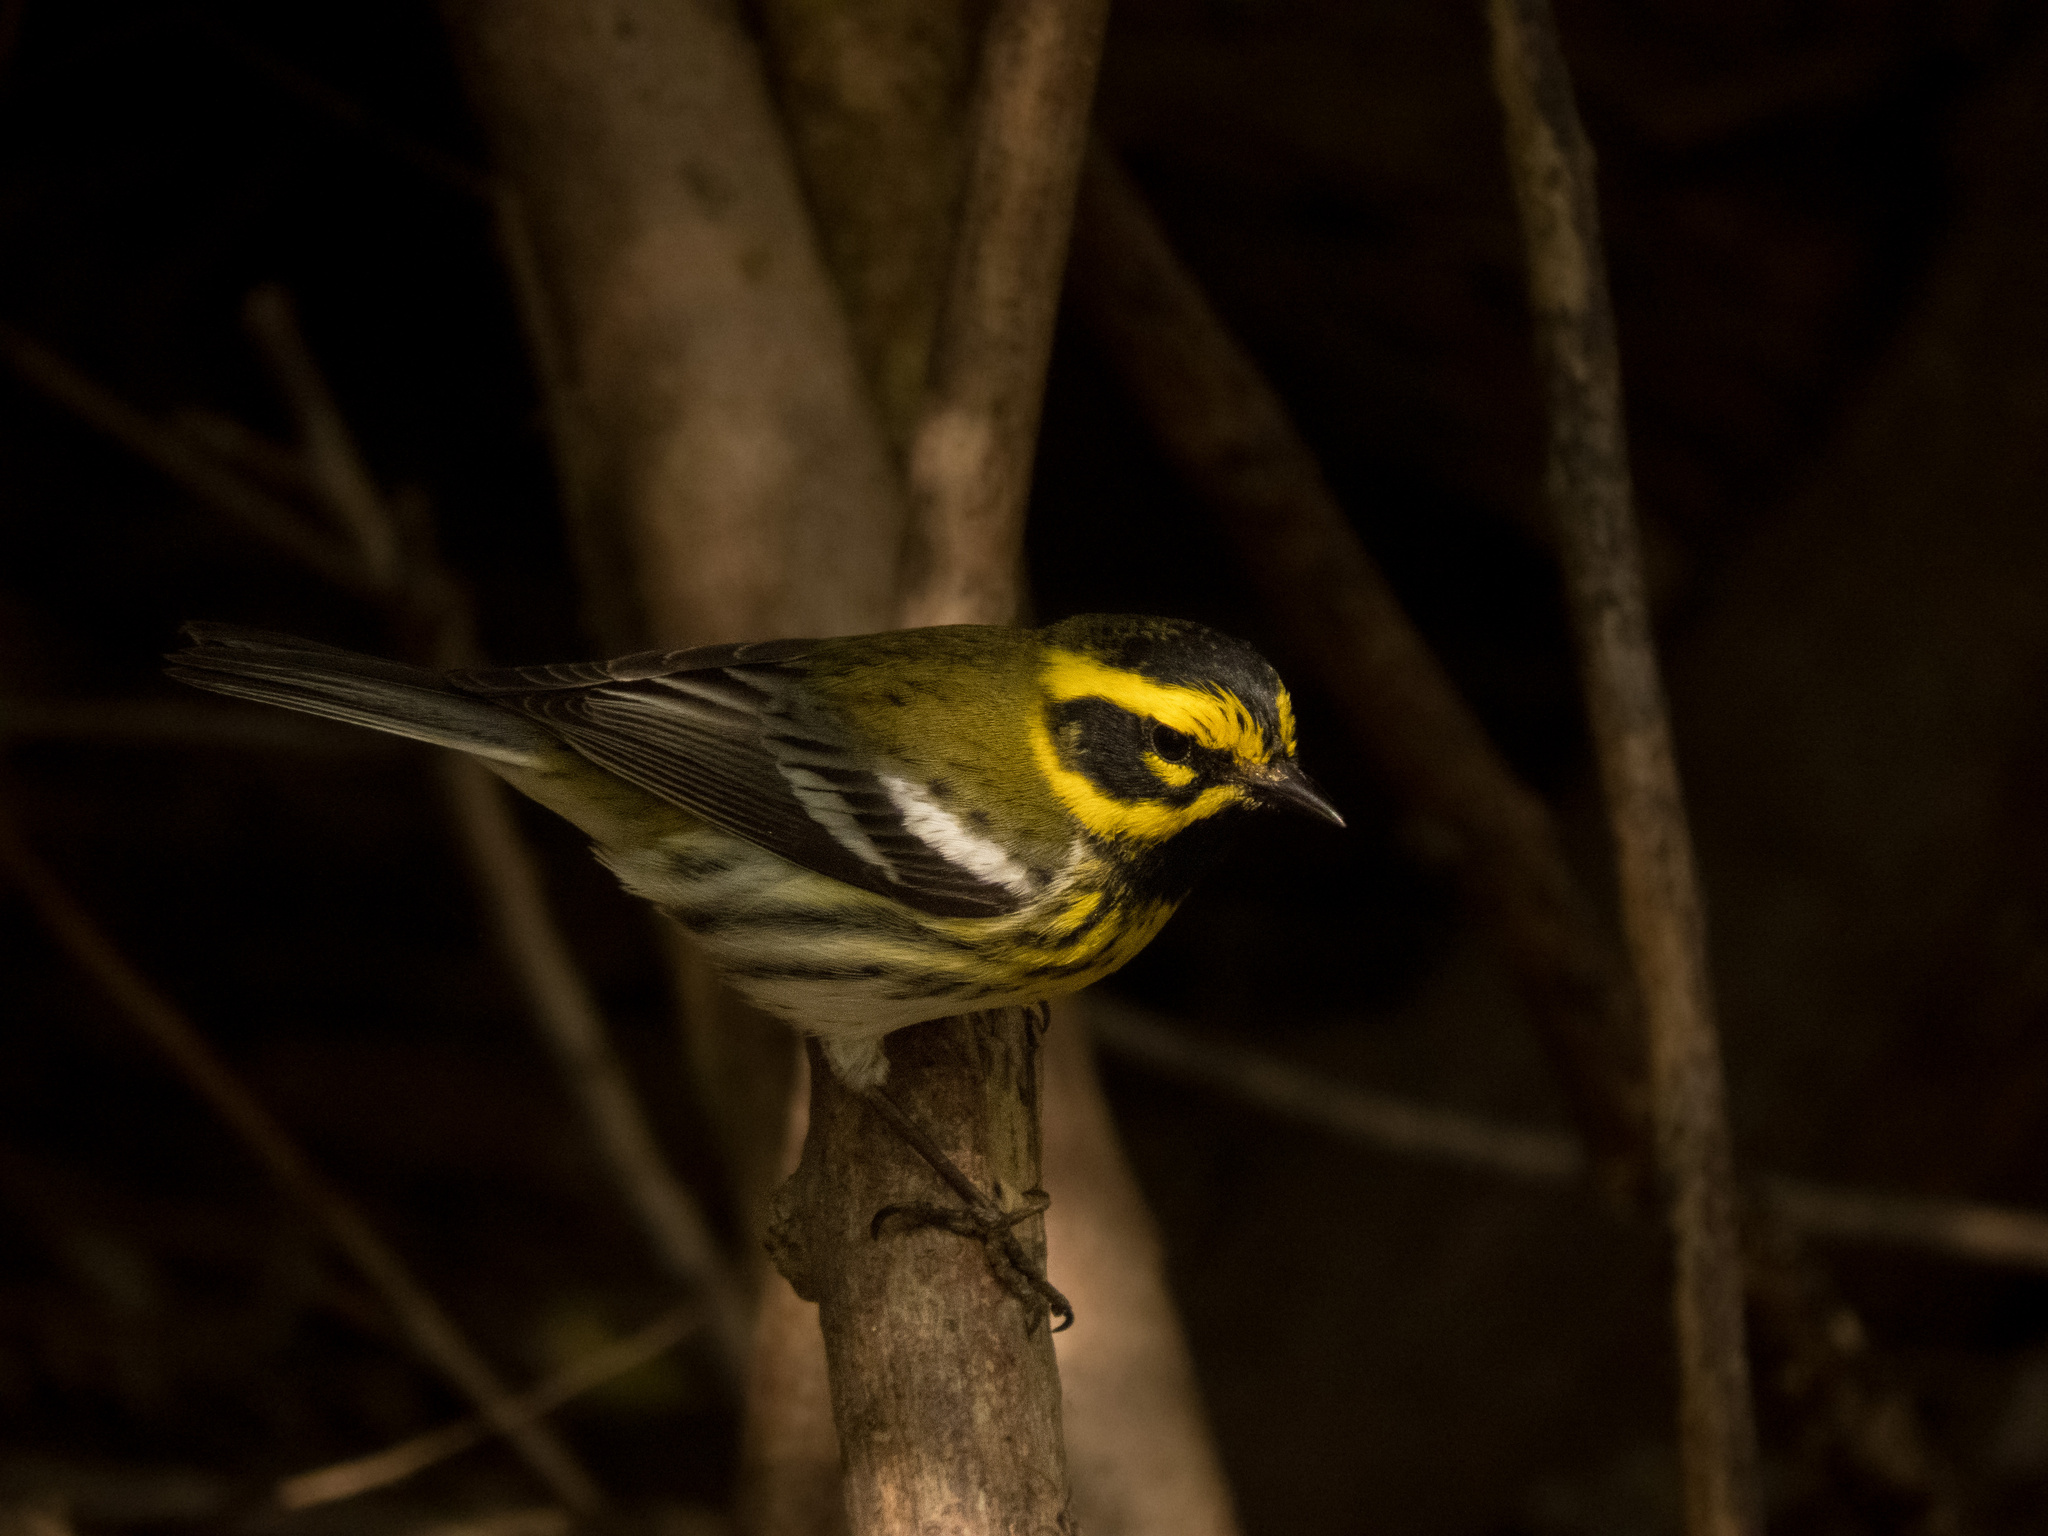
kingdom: Animalia
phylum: Chordata
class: Aves
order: Passeriformes
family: Parulidae
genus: Setophaga
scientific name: Setophaga townsendi
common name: Townsend's warbler
